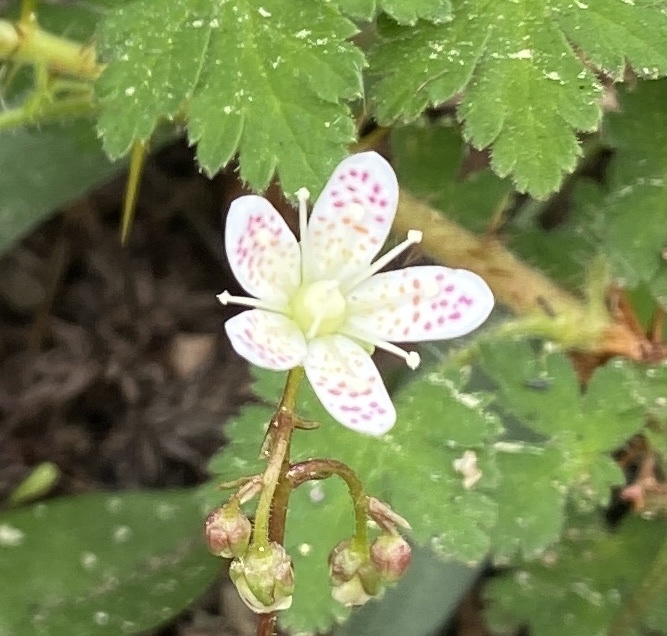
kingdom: Plantae
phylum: Tracheophyta
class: Magnoliopsida
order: Saxifragales
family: Saxifragaceae
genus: Saxifraga
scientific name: Saxifraga bronchialis
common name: Matted saxifrage
